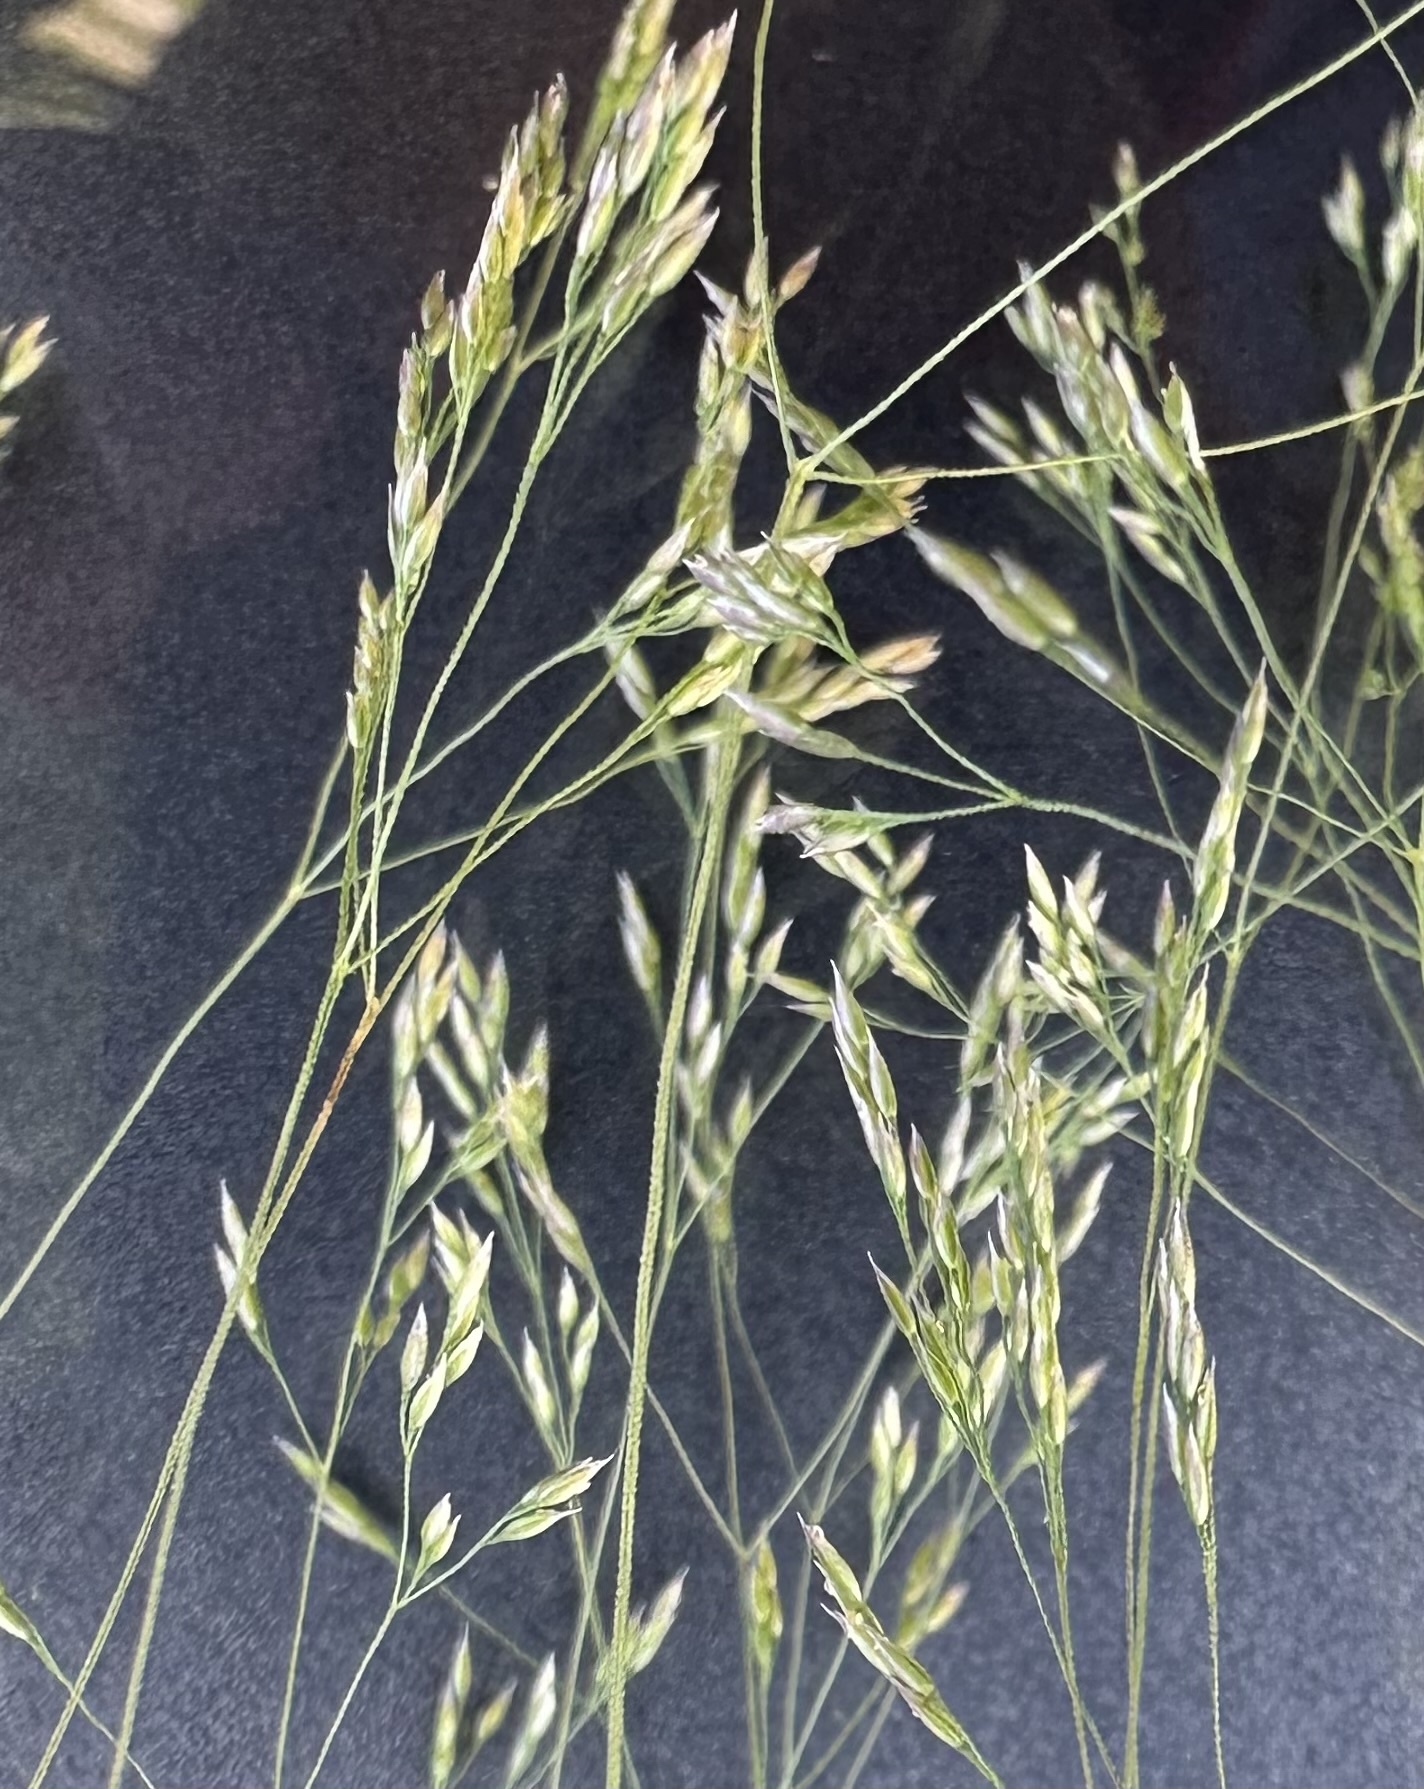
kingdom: Plantae
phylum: Tracheophyta
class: Liliopsida
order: Poales
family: Poaceae
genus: Agrostis
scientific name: Agrostis hyemalis
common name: Small bent
